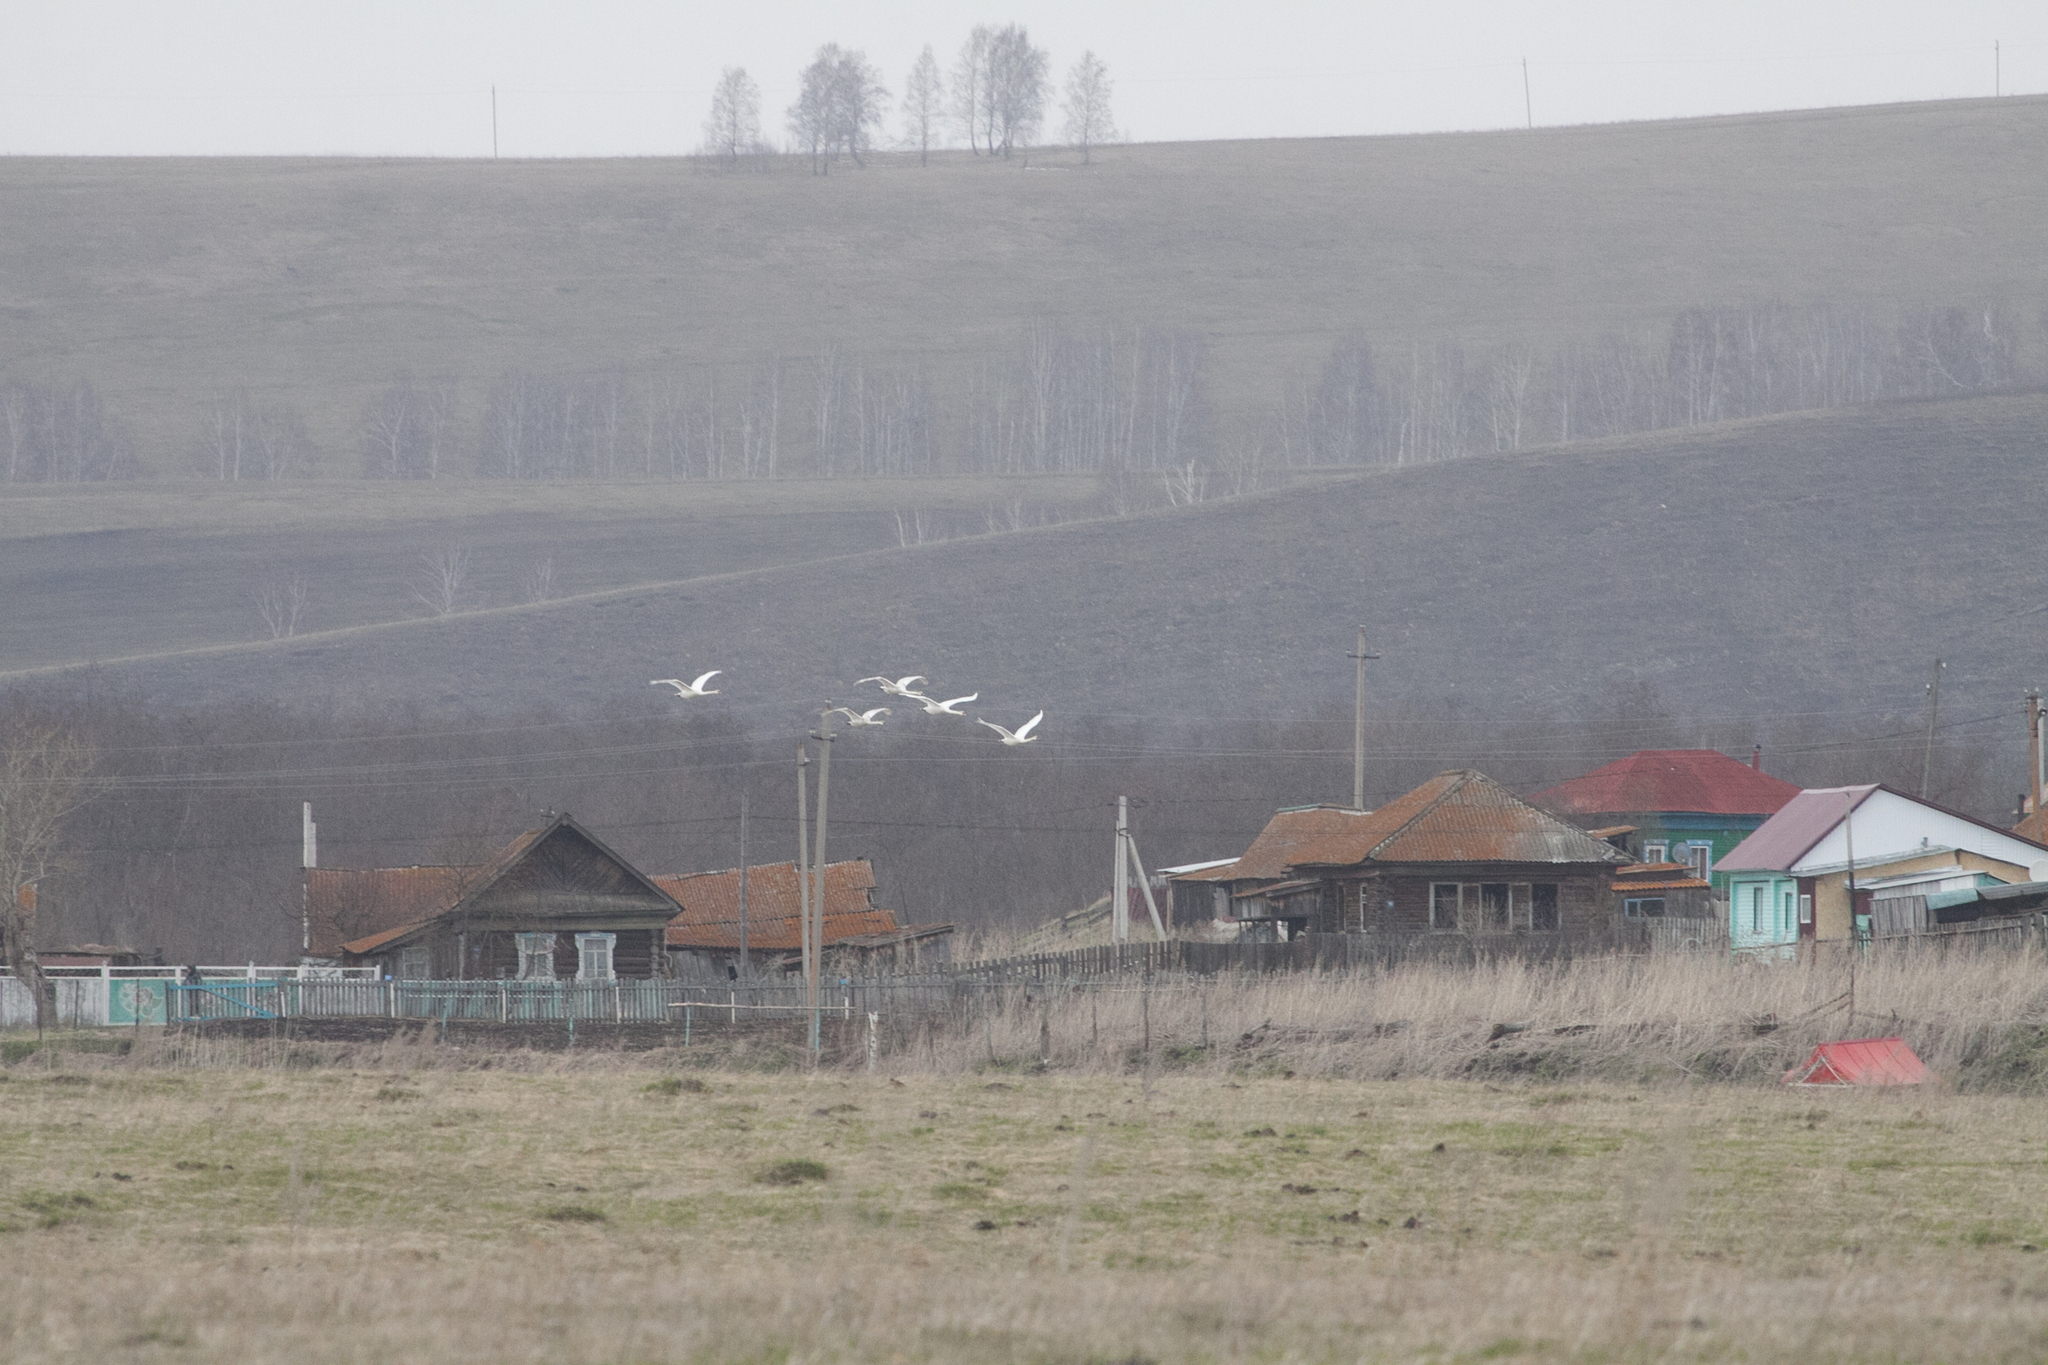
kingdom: Animalia
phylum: Chordata
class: Aves
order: Anseriformes
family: Anatidae
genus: Cygnus
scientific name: Cygnus olor
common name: Mute swan
